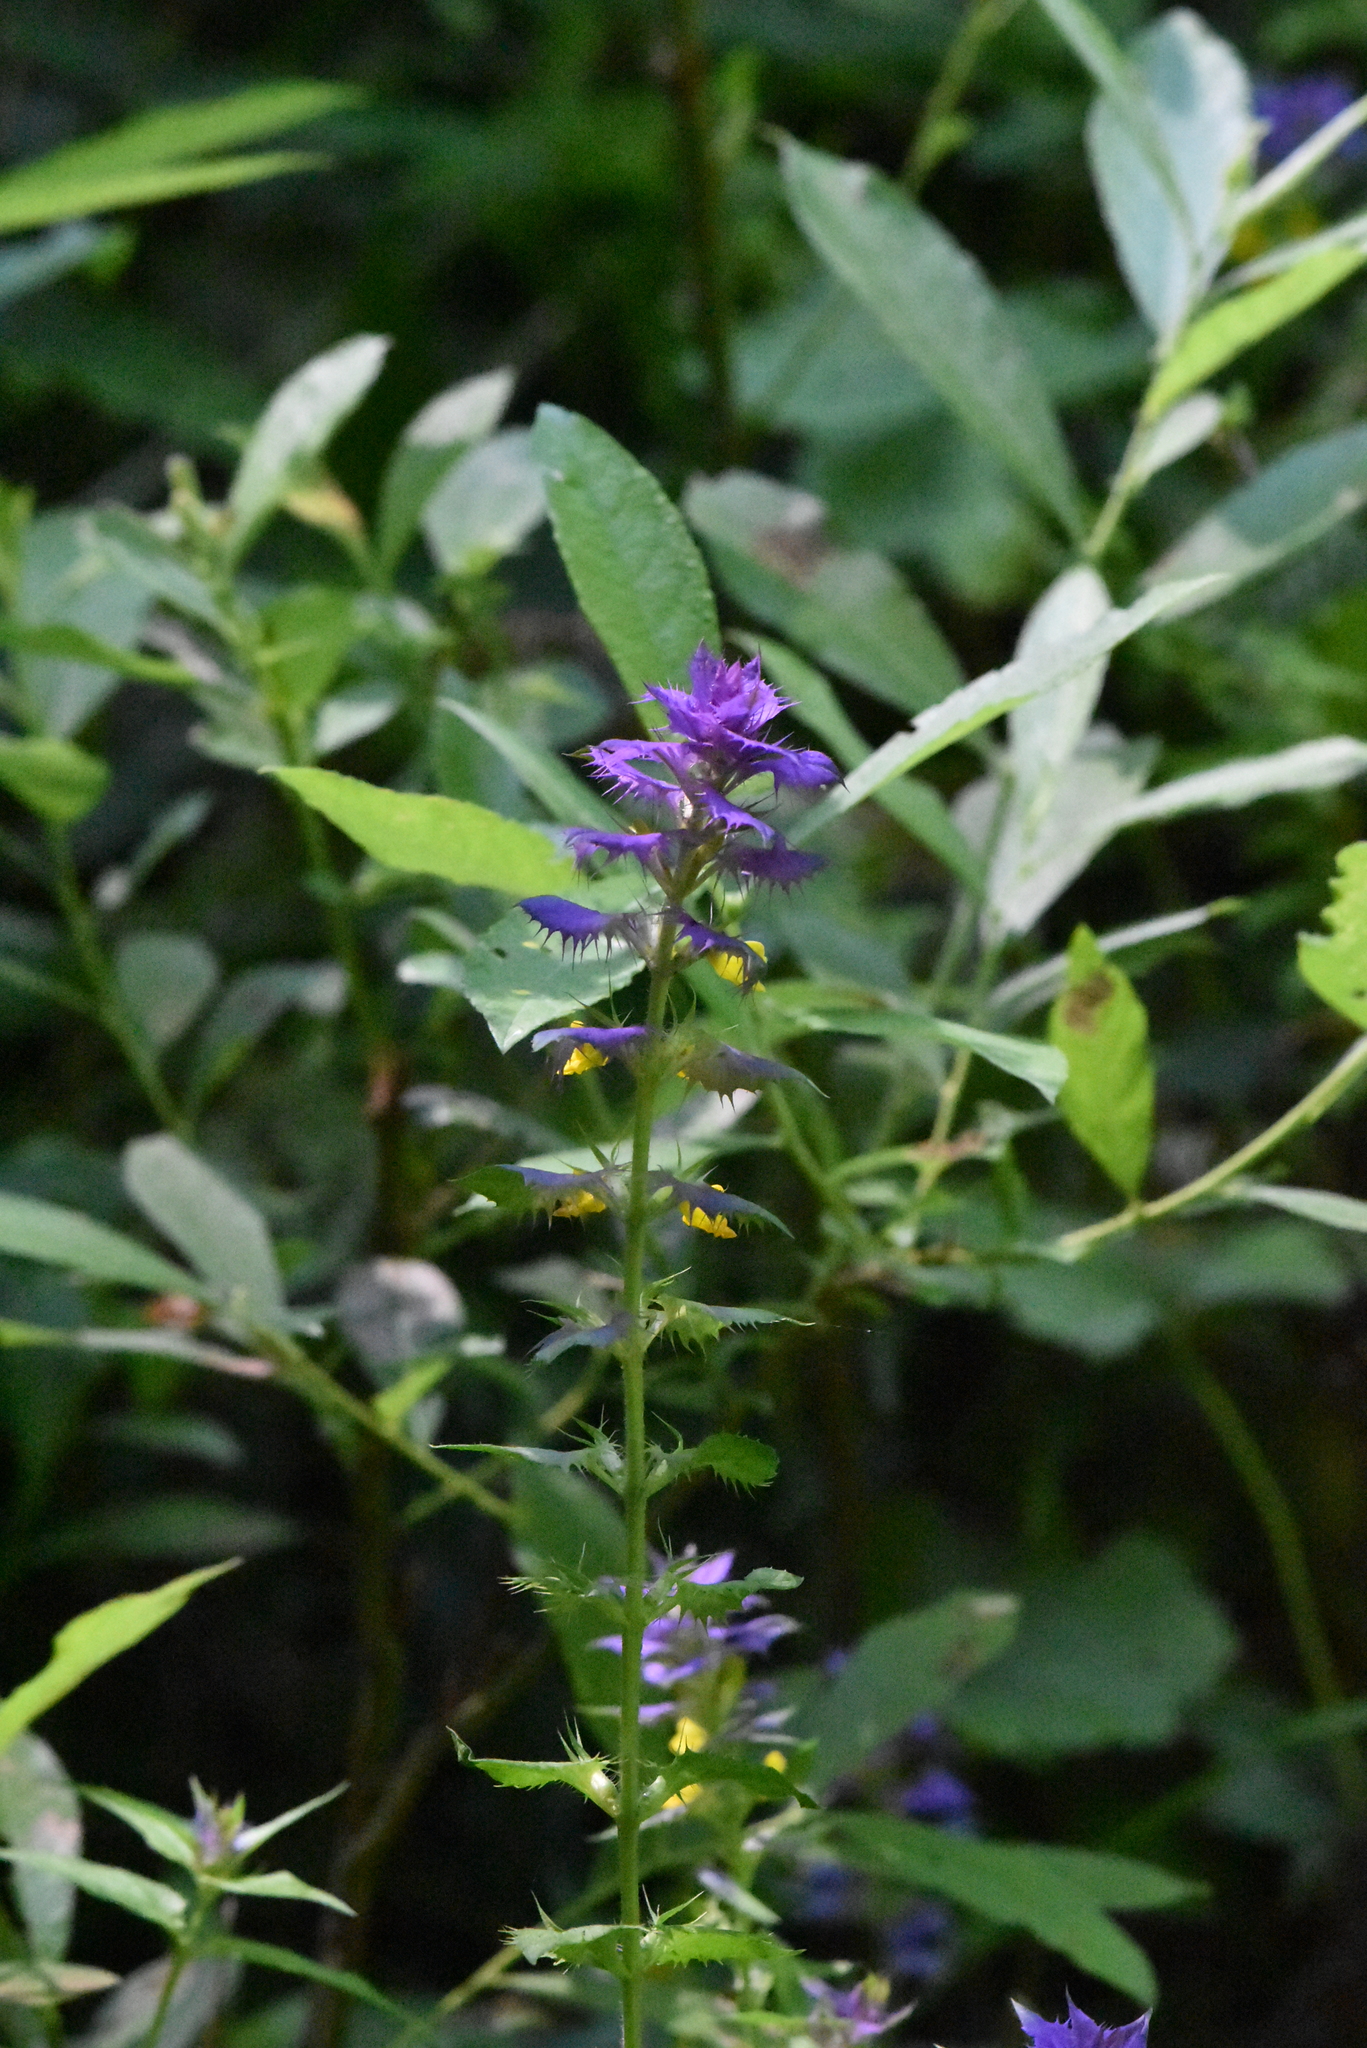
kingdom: Plantae
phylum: Tracheophyta
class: Magnoliopsida
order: Lamiales
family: Orobanchaceae
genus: Melampyrum
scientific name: Melampyrum nemorosum
